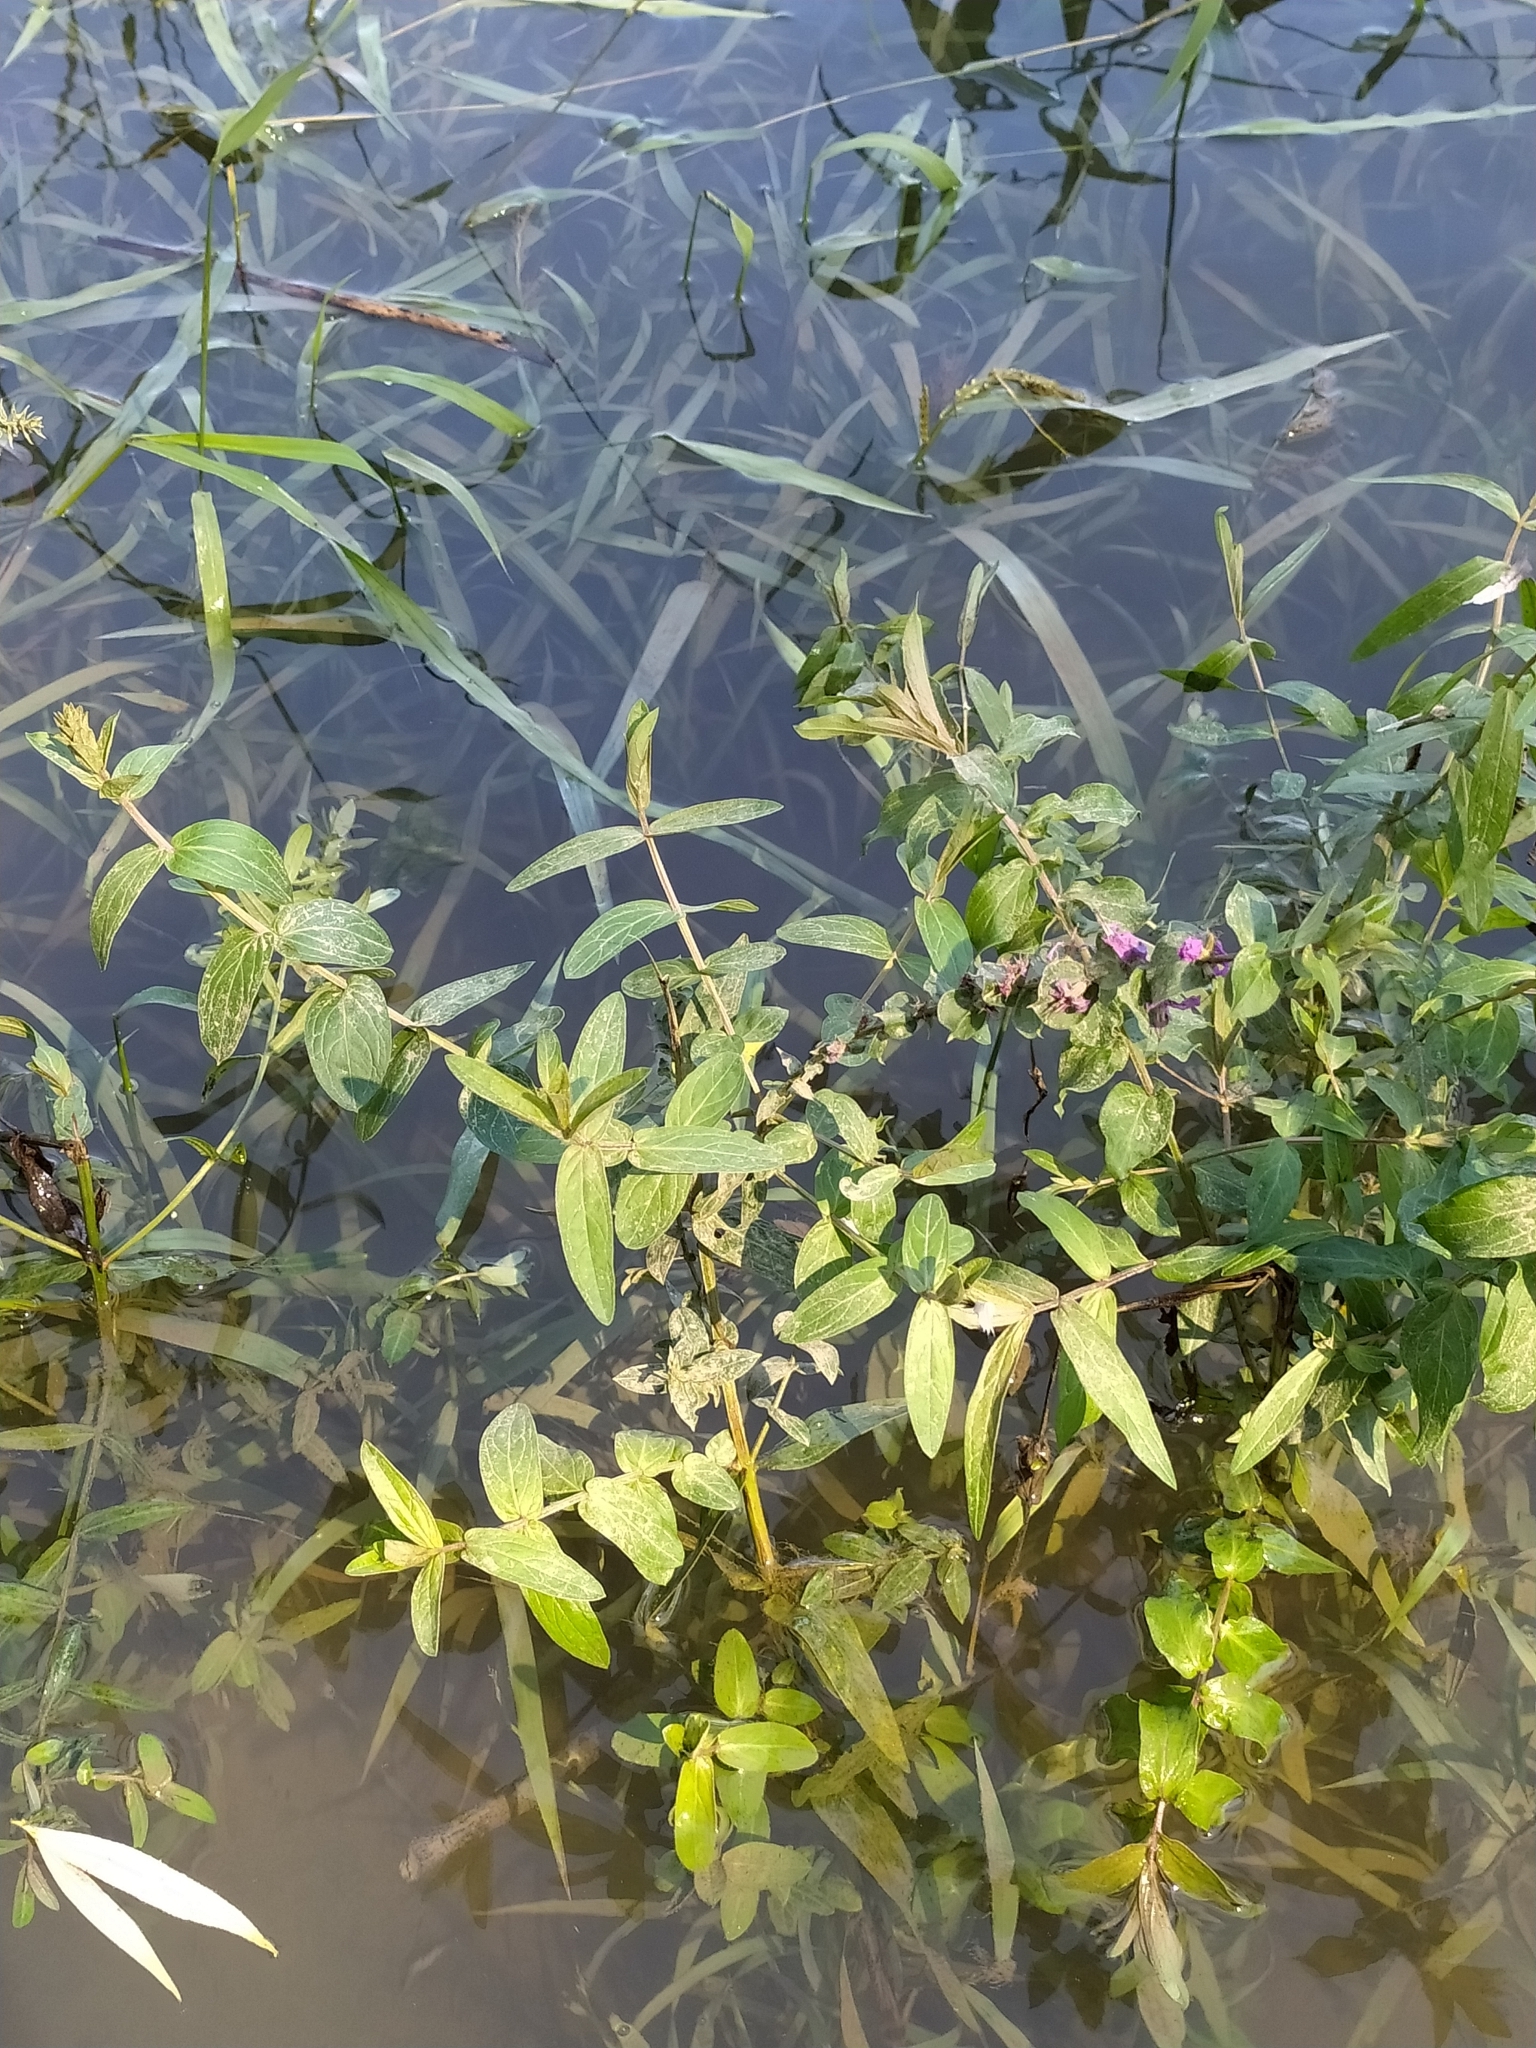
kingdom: Plantae
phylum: Tracheophyta
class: Magnoliopsida
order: Myrtales
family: Lythraceae
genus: Lythrum
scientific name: Lythrum salicaria
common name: Purple loosestrife
